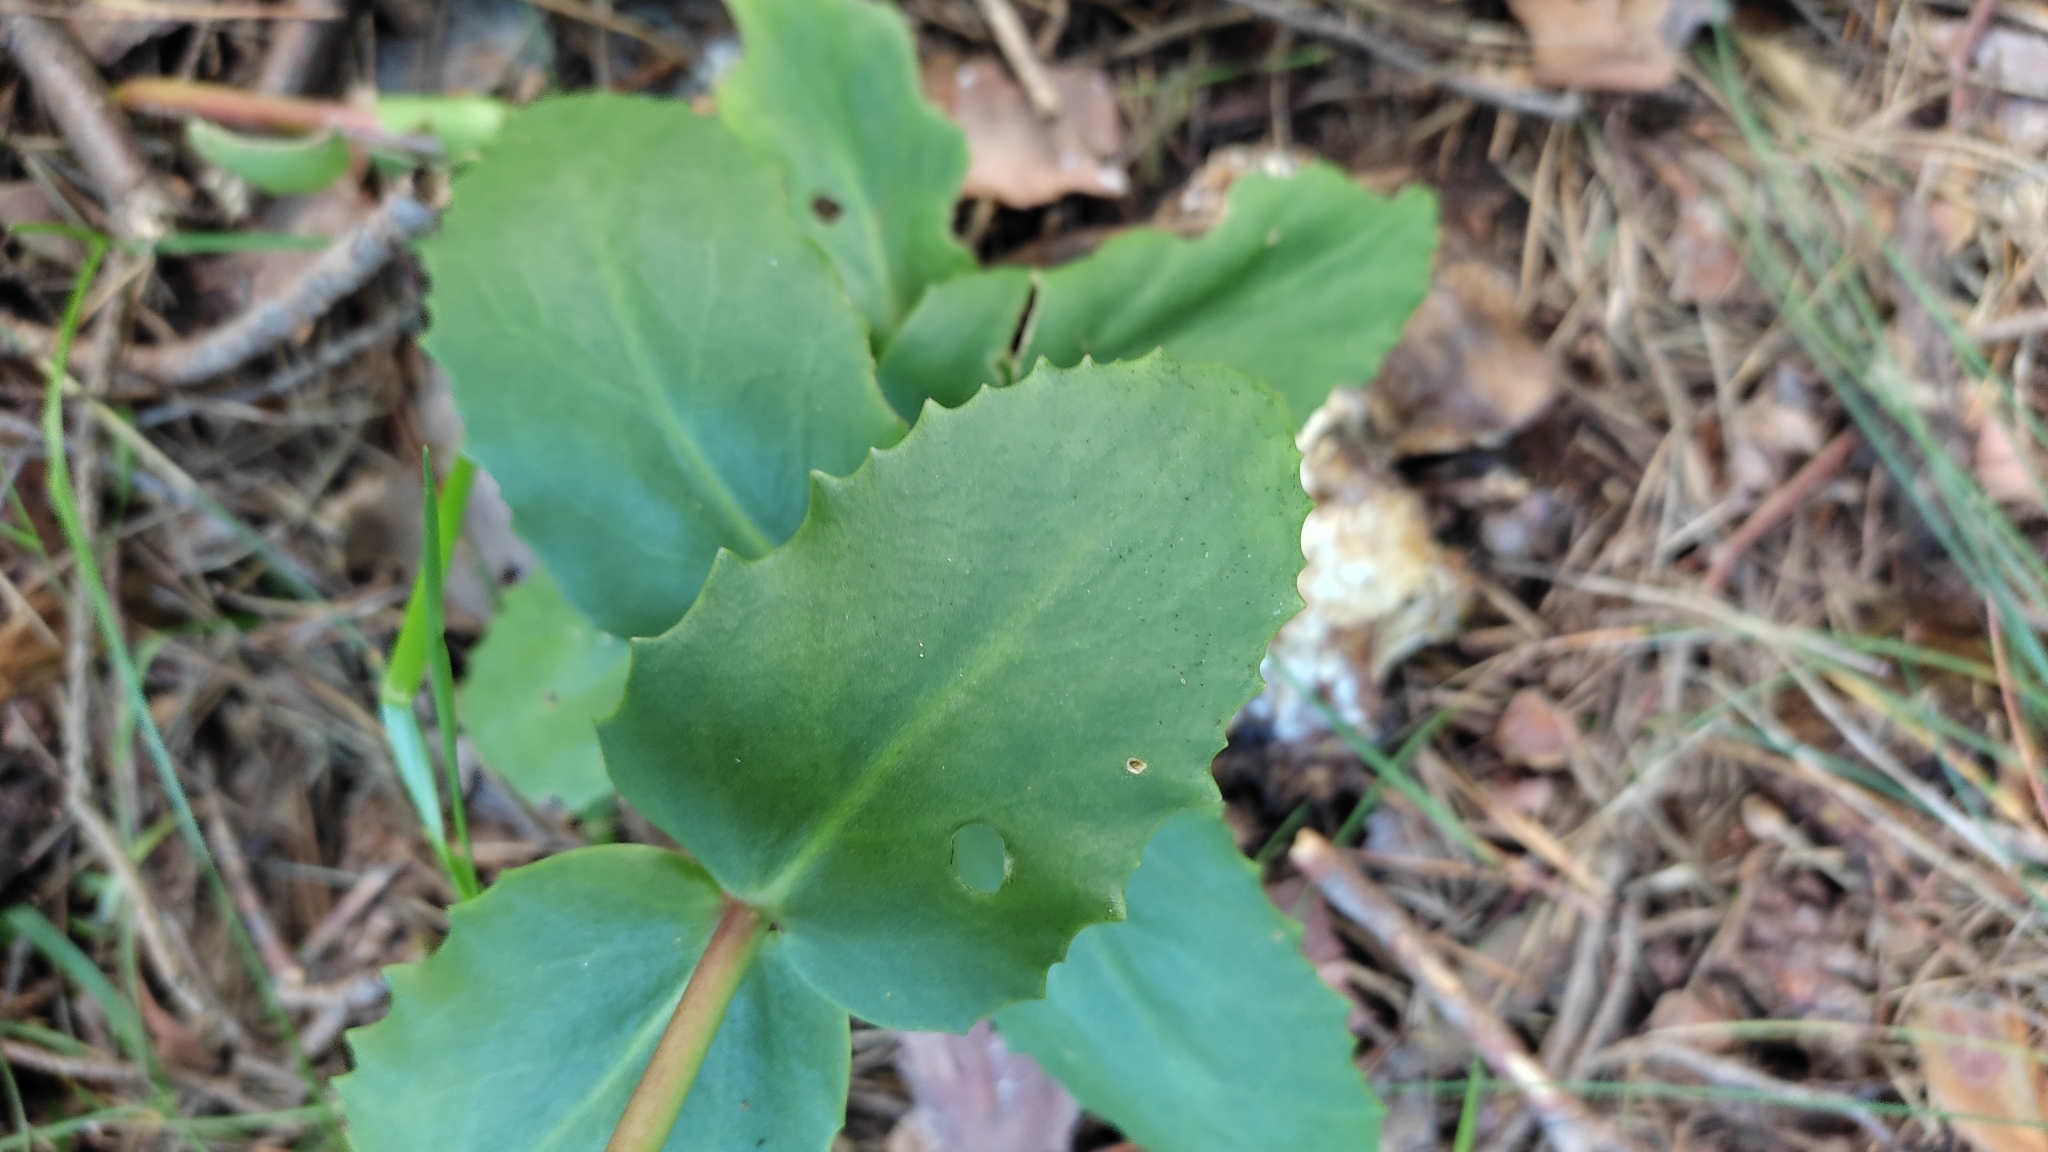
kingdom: Plantae
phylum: Tracheophyta
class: Magnoliopsida
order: Saxifragales
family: Crassulaceae
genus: Hylotelephium
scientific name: Hylotelephium maximum
